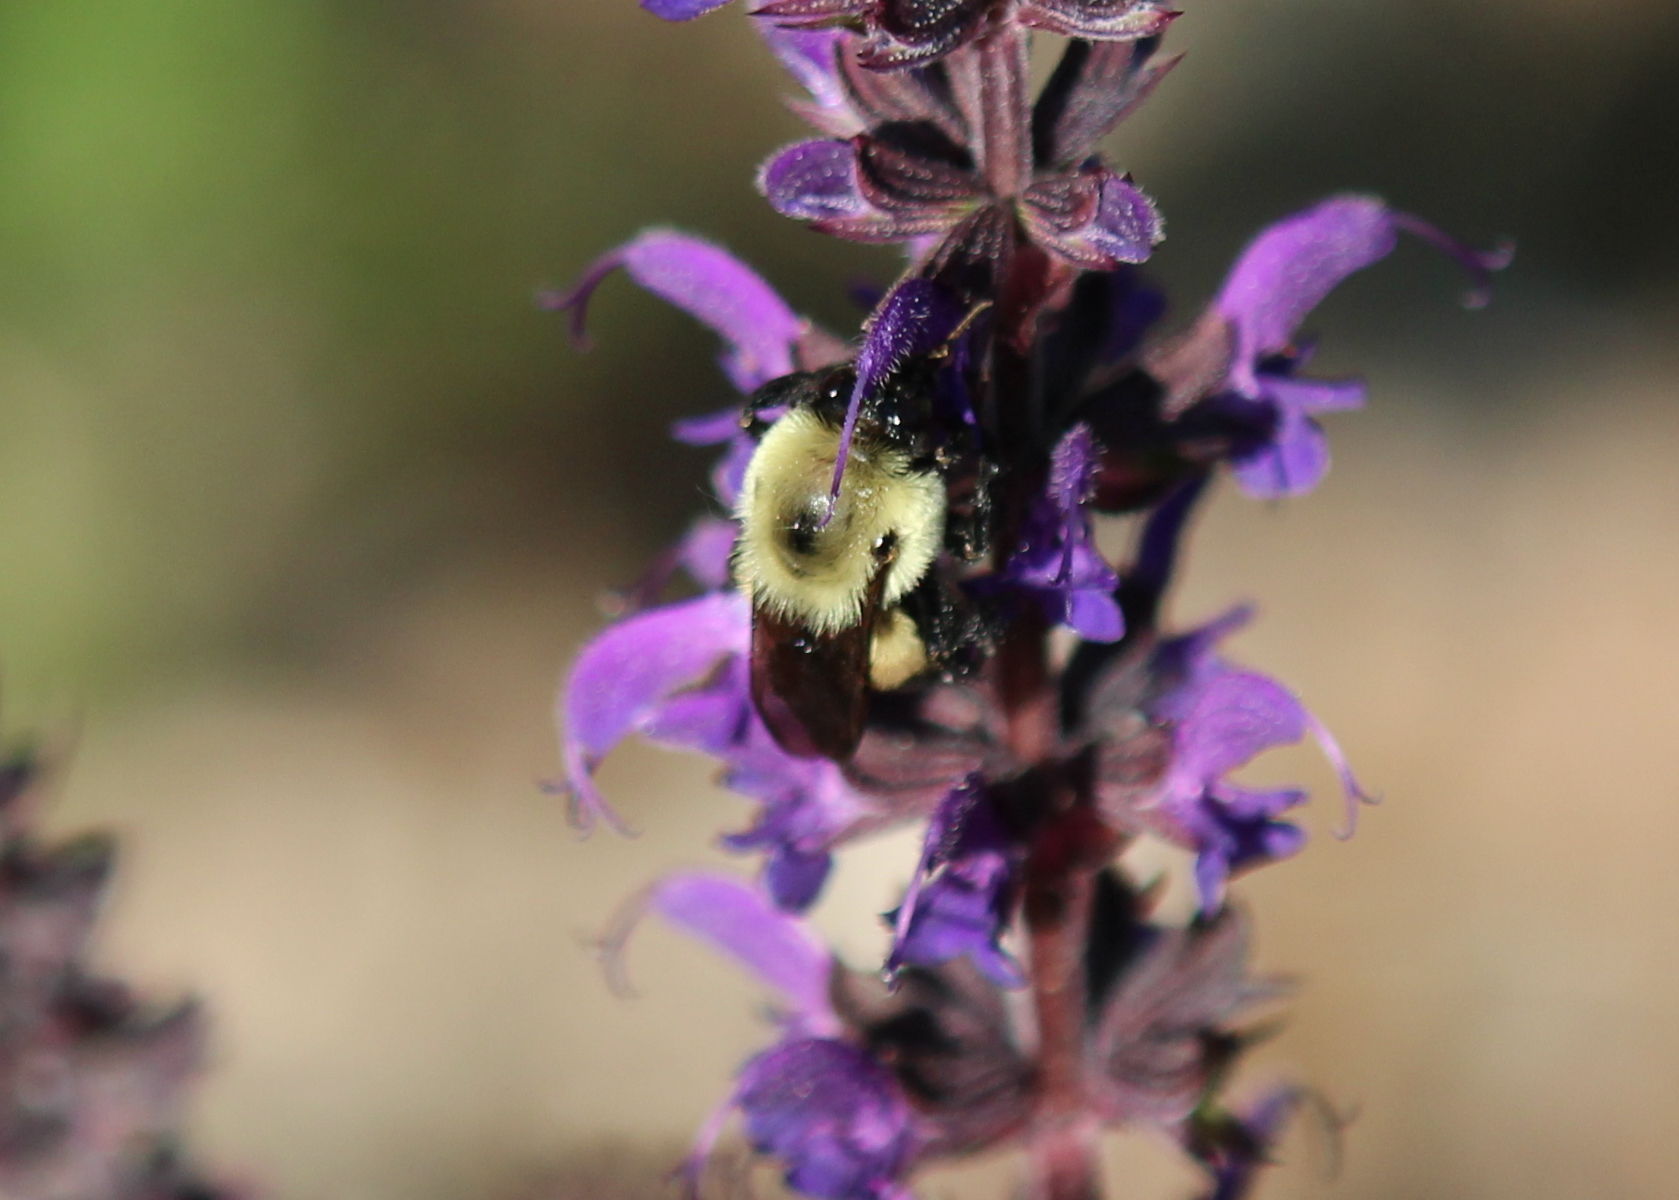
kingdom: Animalia
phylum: Arthropoda
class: Insecta
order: Hymenoptera
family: Apidae
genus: Bombus
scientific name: Bombus griseocollis
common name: Brown-belted bumble bee
